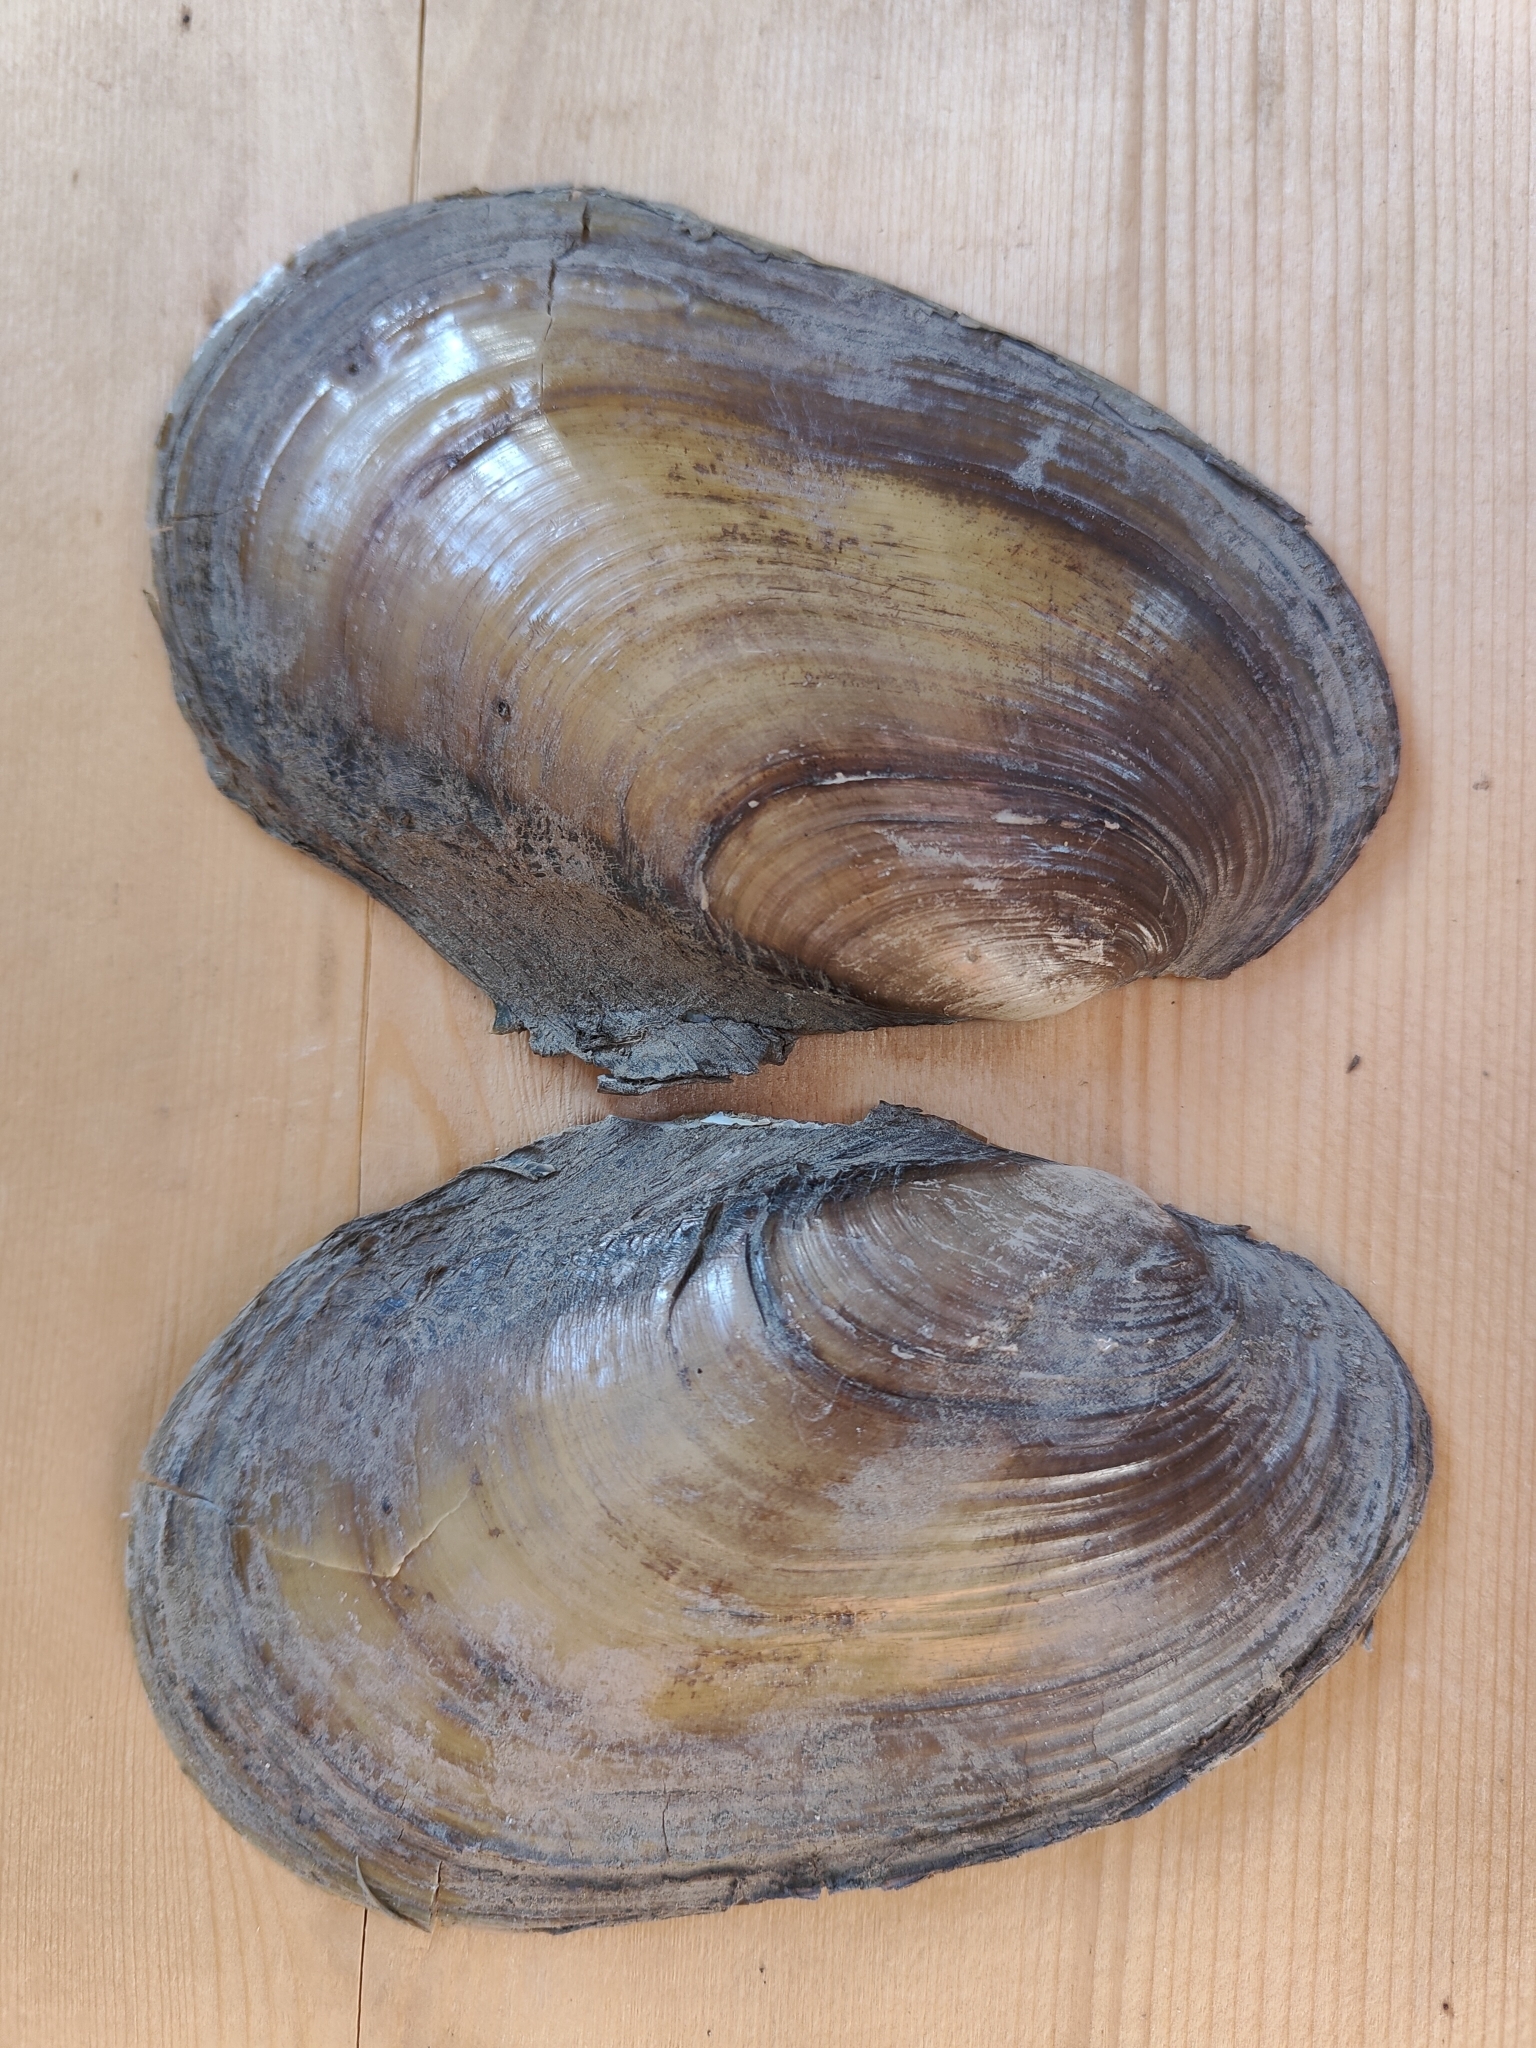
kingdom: Animalia
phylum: Mollusca
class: Bivalvia
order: Unionida
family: Unionidae
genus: Potamilus
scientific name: Potamilus fragilis
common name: Fragile papershell
